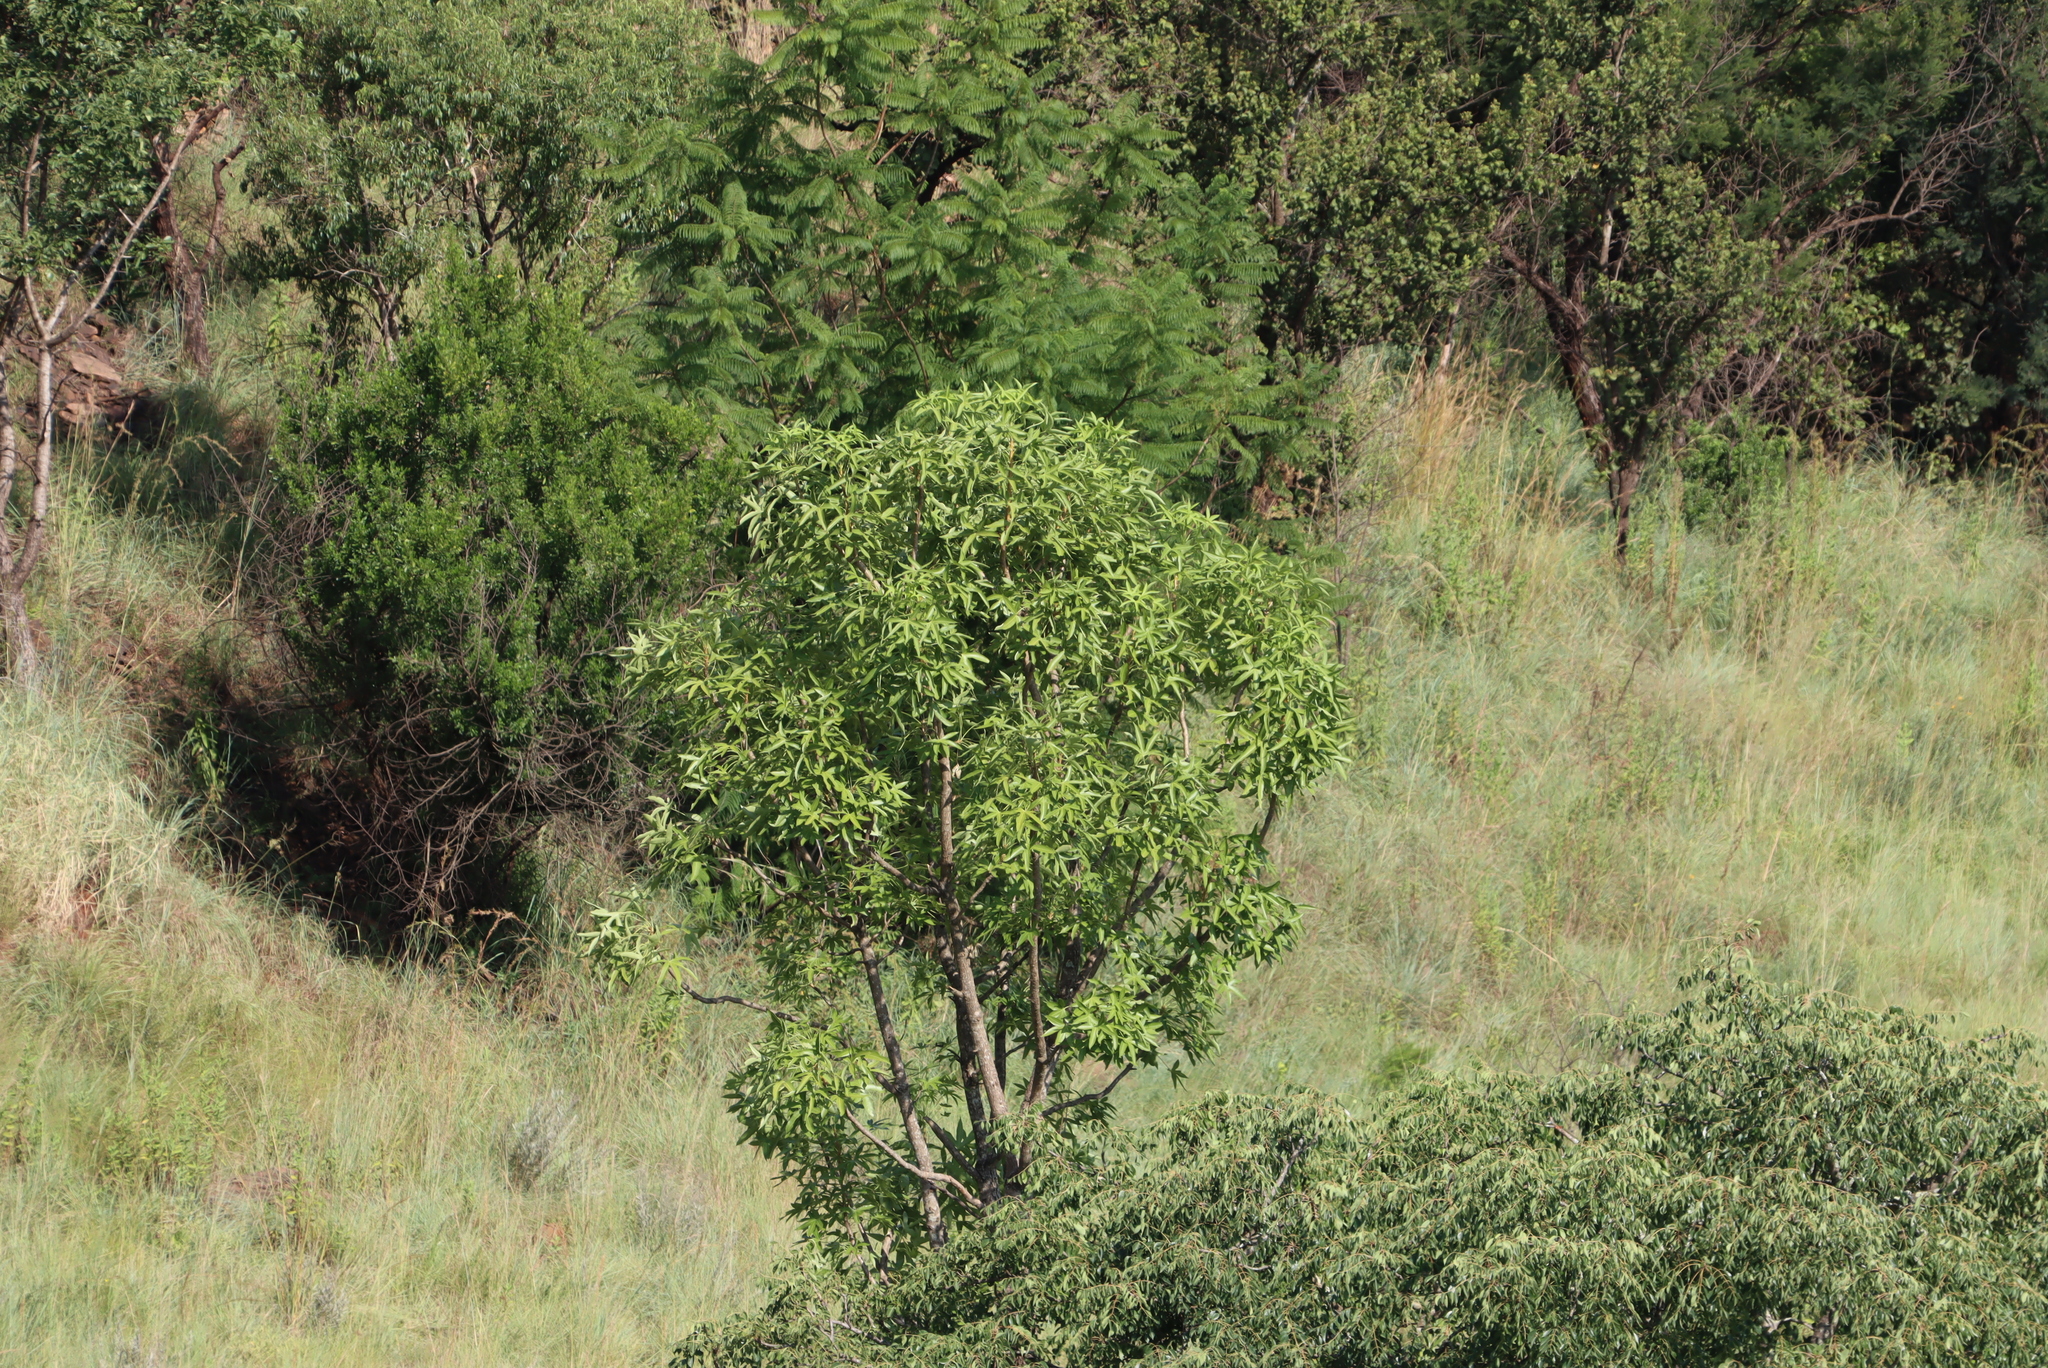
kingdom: Plantae
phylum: Tracheophyta
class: Magnoliopsida
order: Apiales
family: Araliaceae
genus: Cussonia
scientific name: Cussonia natalensis
